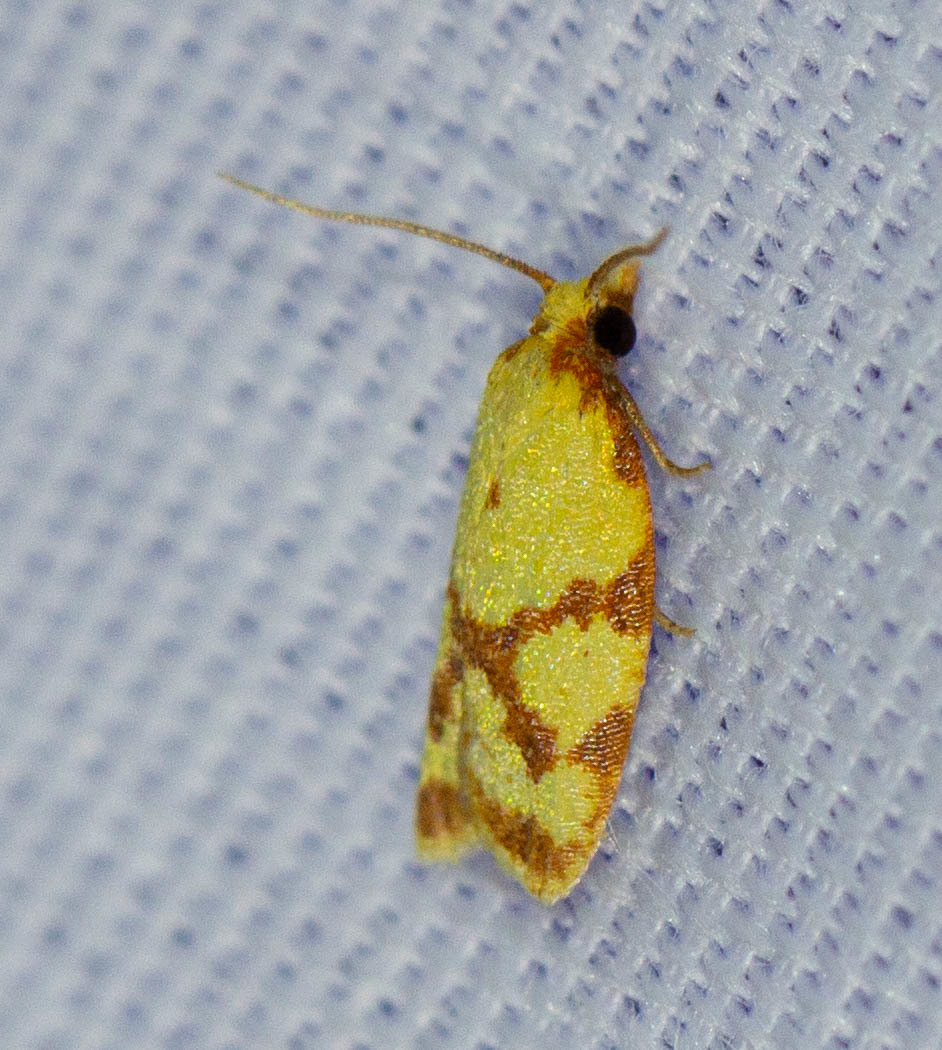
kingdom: Animalia
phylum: Arthropoda
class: Insecta
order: Lepidoptera
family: Tortricidae
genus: Sparganothis
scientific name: Sparganothis sulfureana
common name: Sparganothis fruitworm moth
